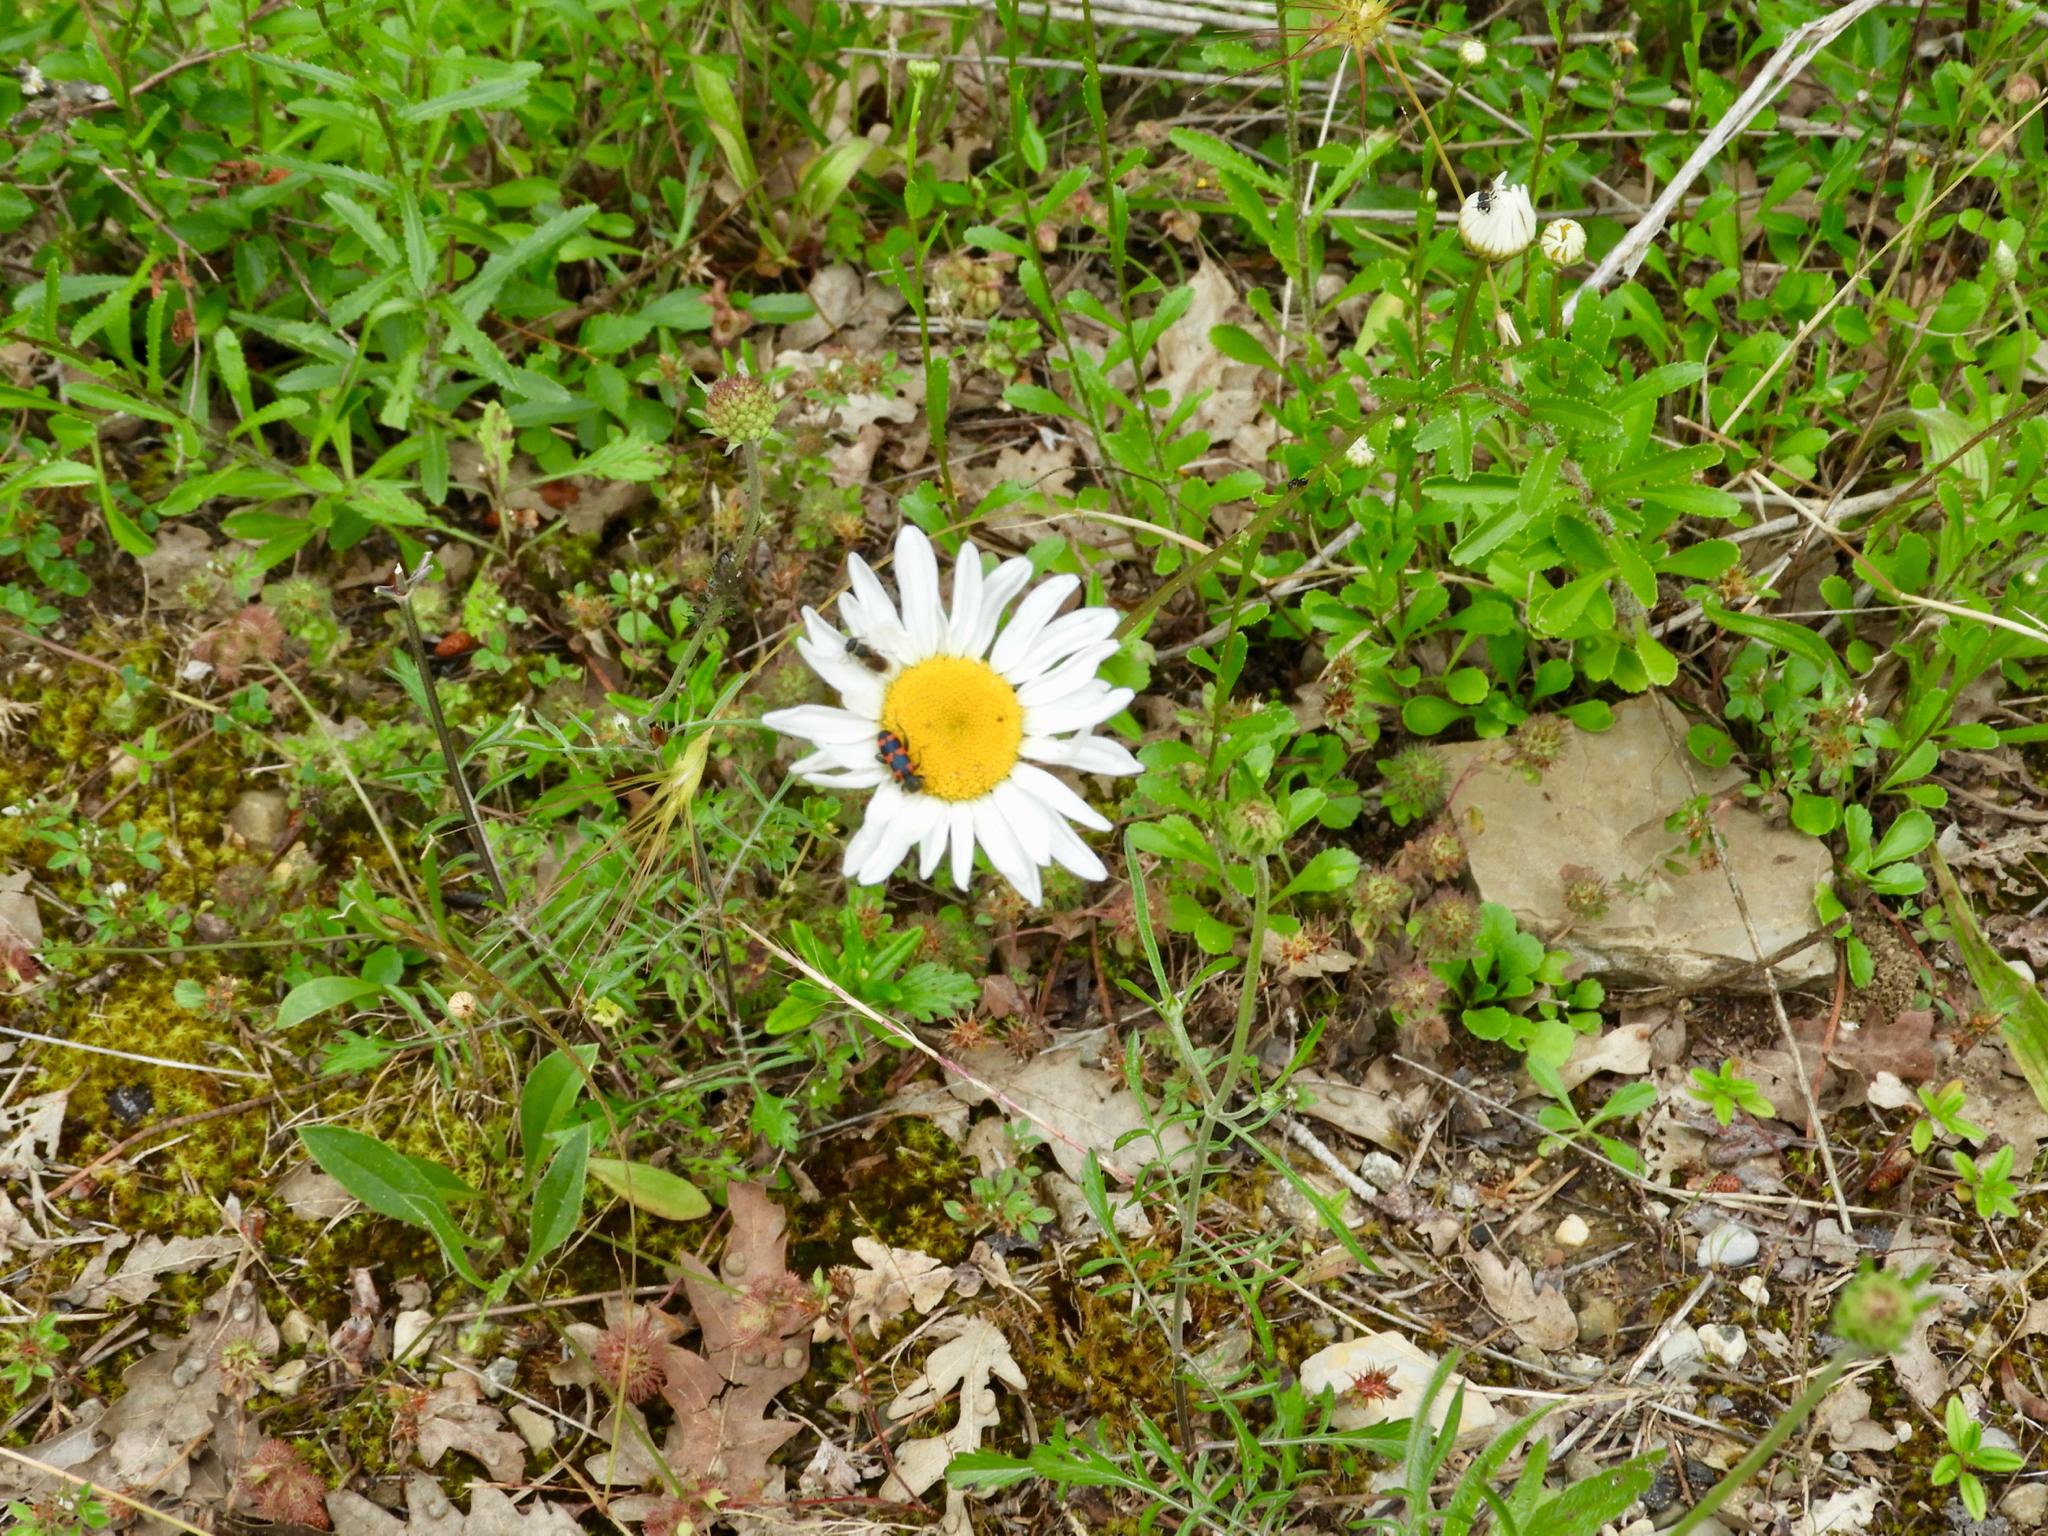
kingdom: Animalia
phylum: Arthropoda
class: Insecta
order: Coleoptera
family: Cleridae
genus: Trichodes
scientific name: Trichodes leucopsideus
